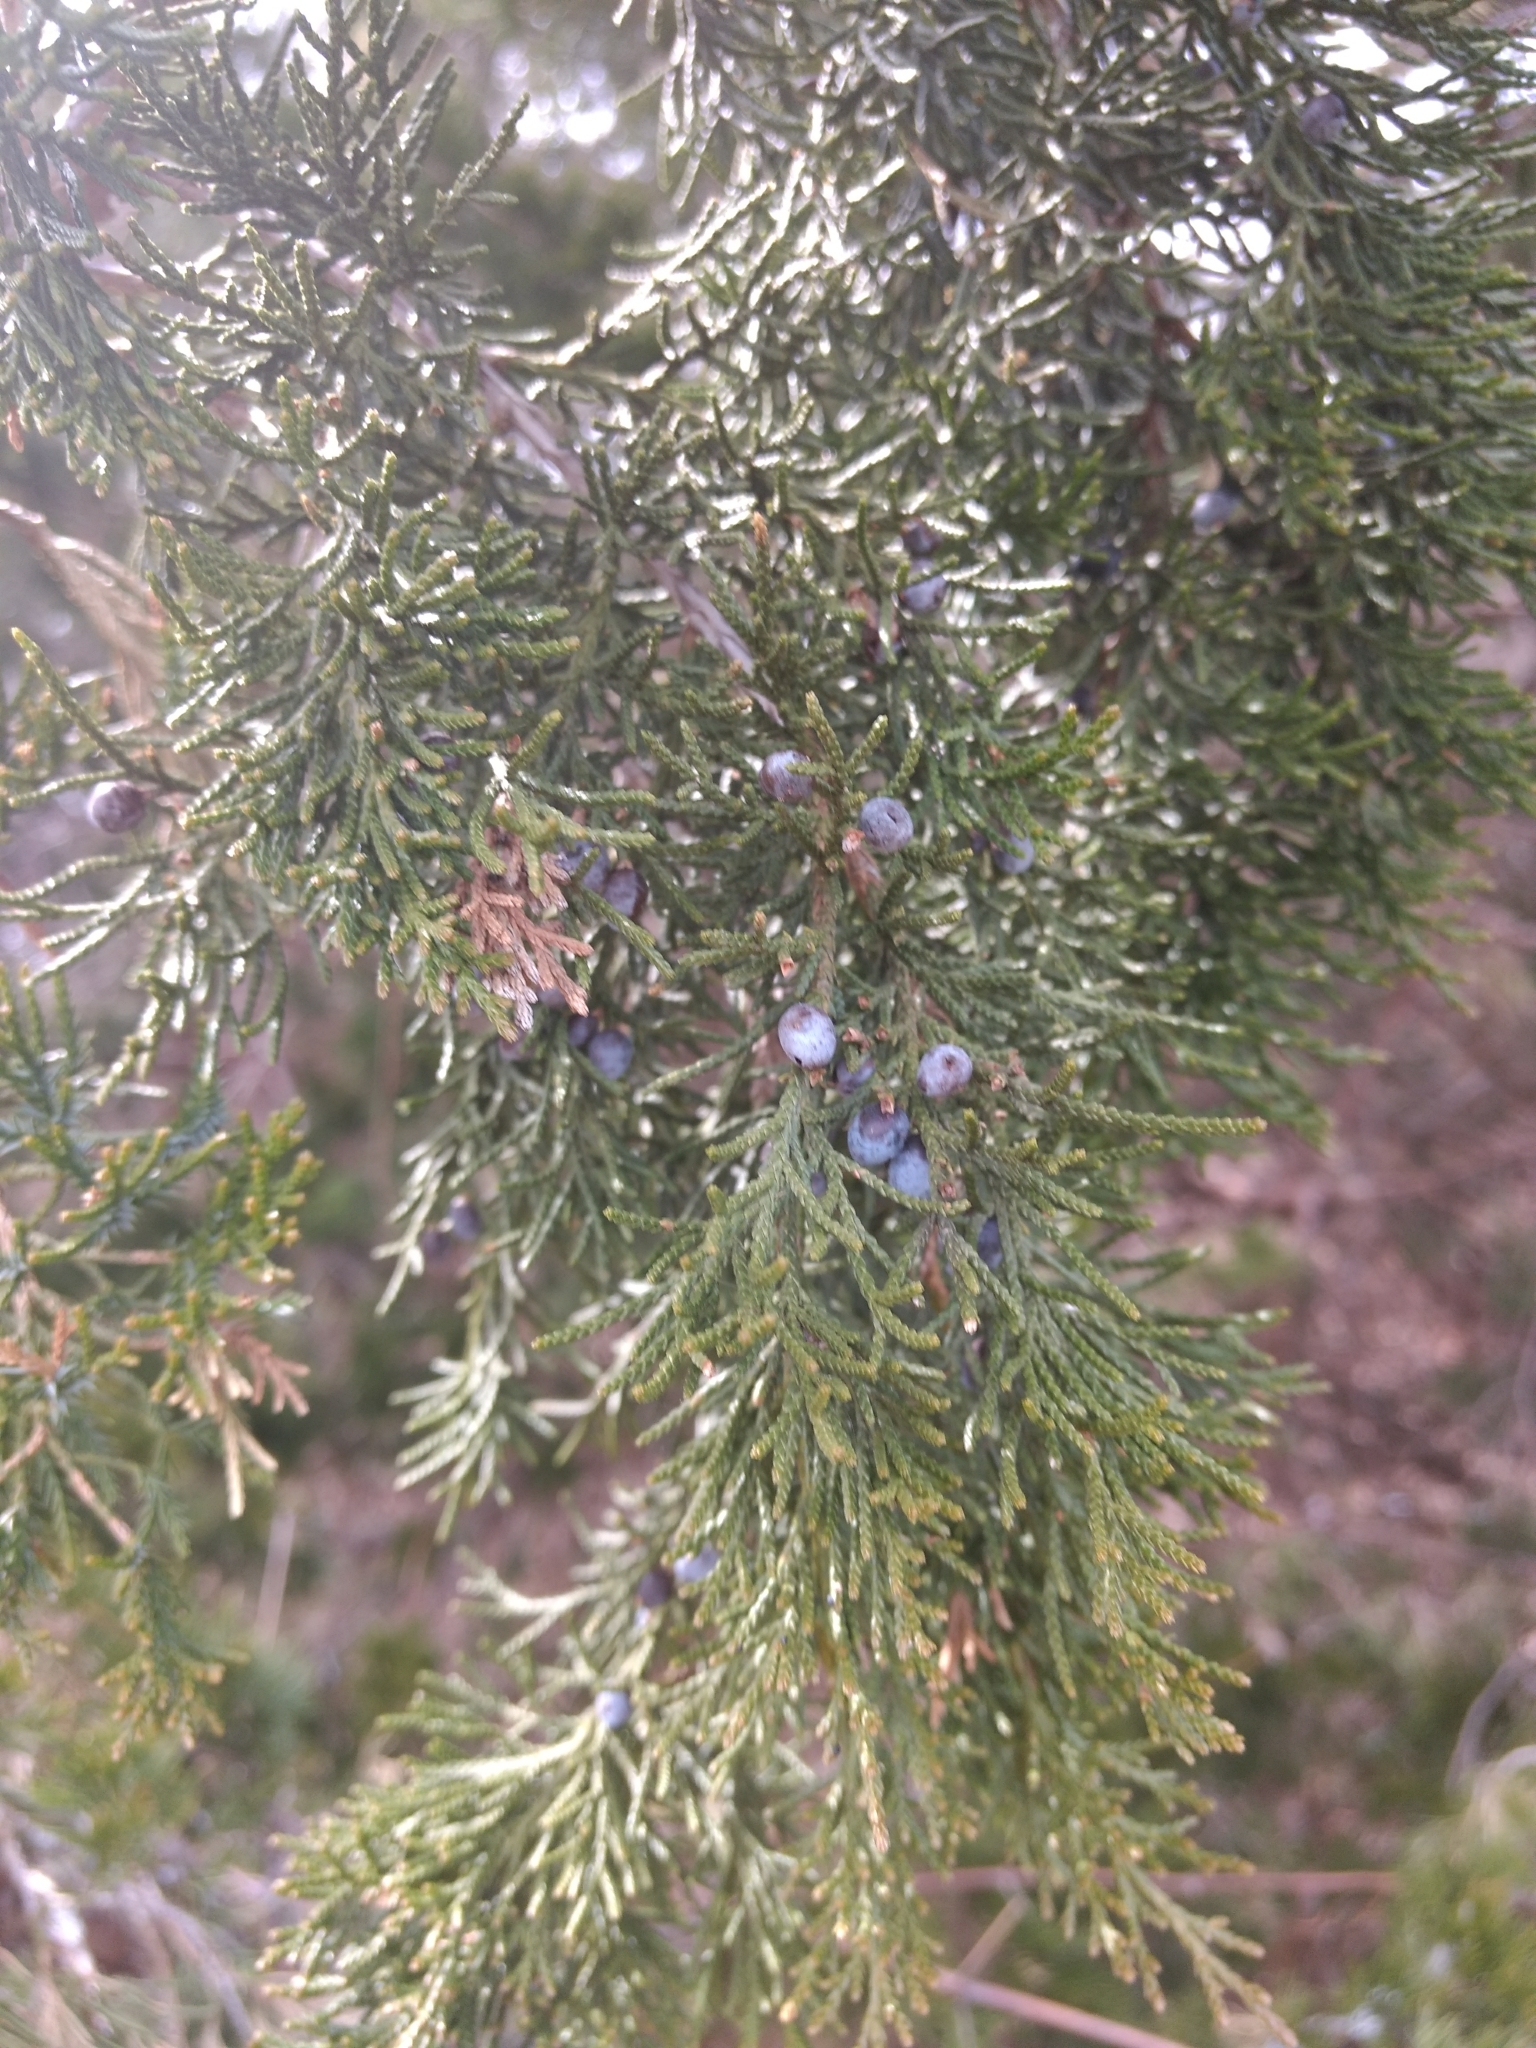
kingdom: Plantae
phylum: Tracheophyta
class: Pinopsida
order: Pinales
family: Cupressaceae
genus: Juniperus
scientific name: Juniperus virginiana
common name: Red juniper
